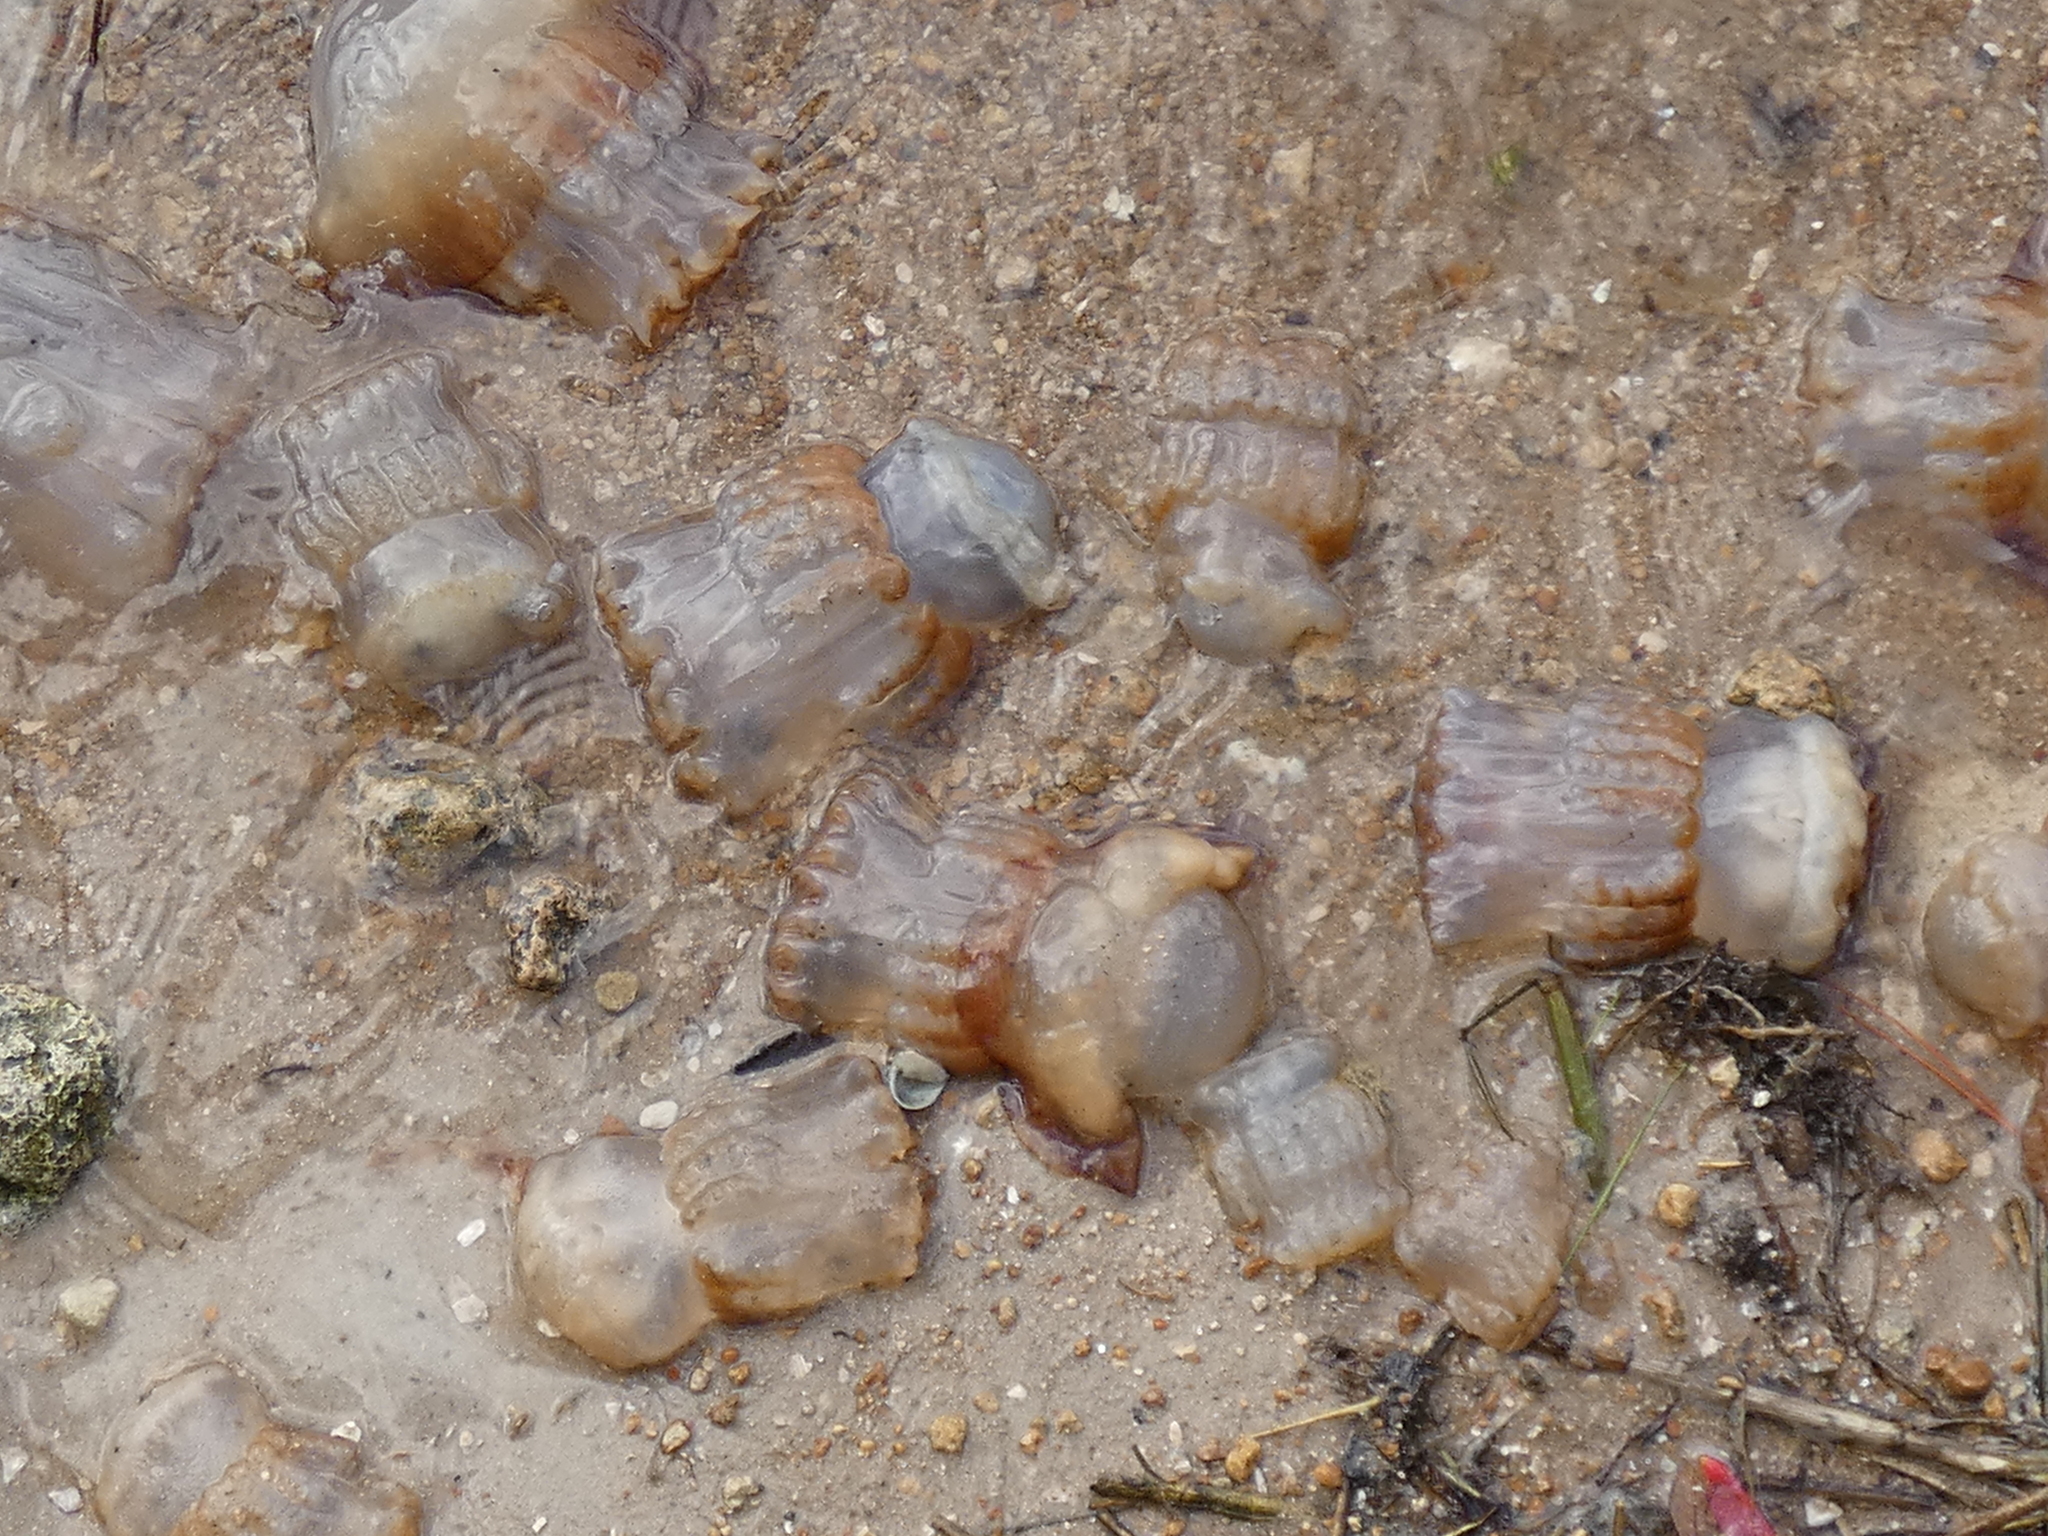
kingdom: Animalia
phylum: Cnidaria
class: Scyphozoa
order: Rhizostomeae
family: Stomolophidae
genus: Stomolophus
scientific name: Stomolophus meleagris
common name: Cabbagehead
